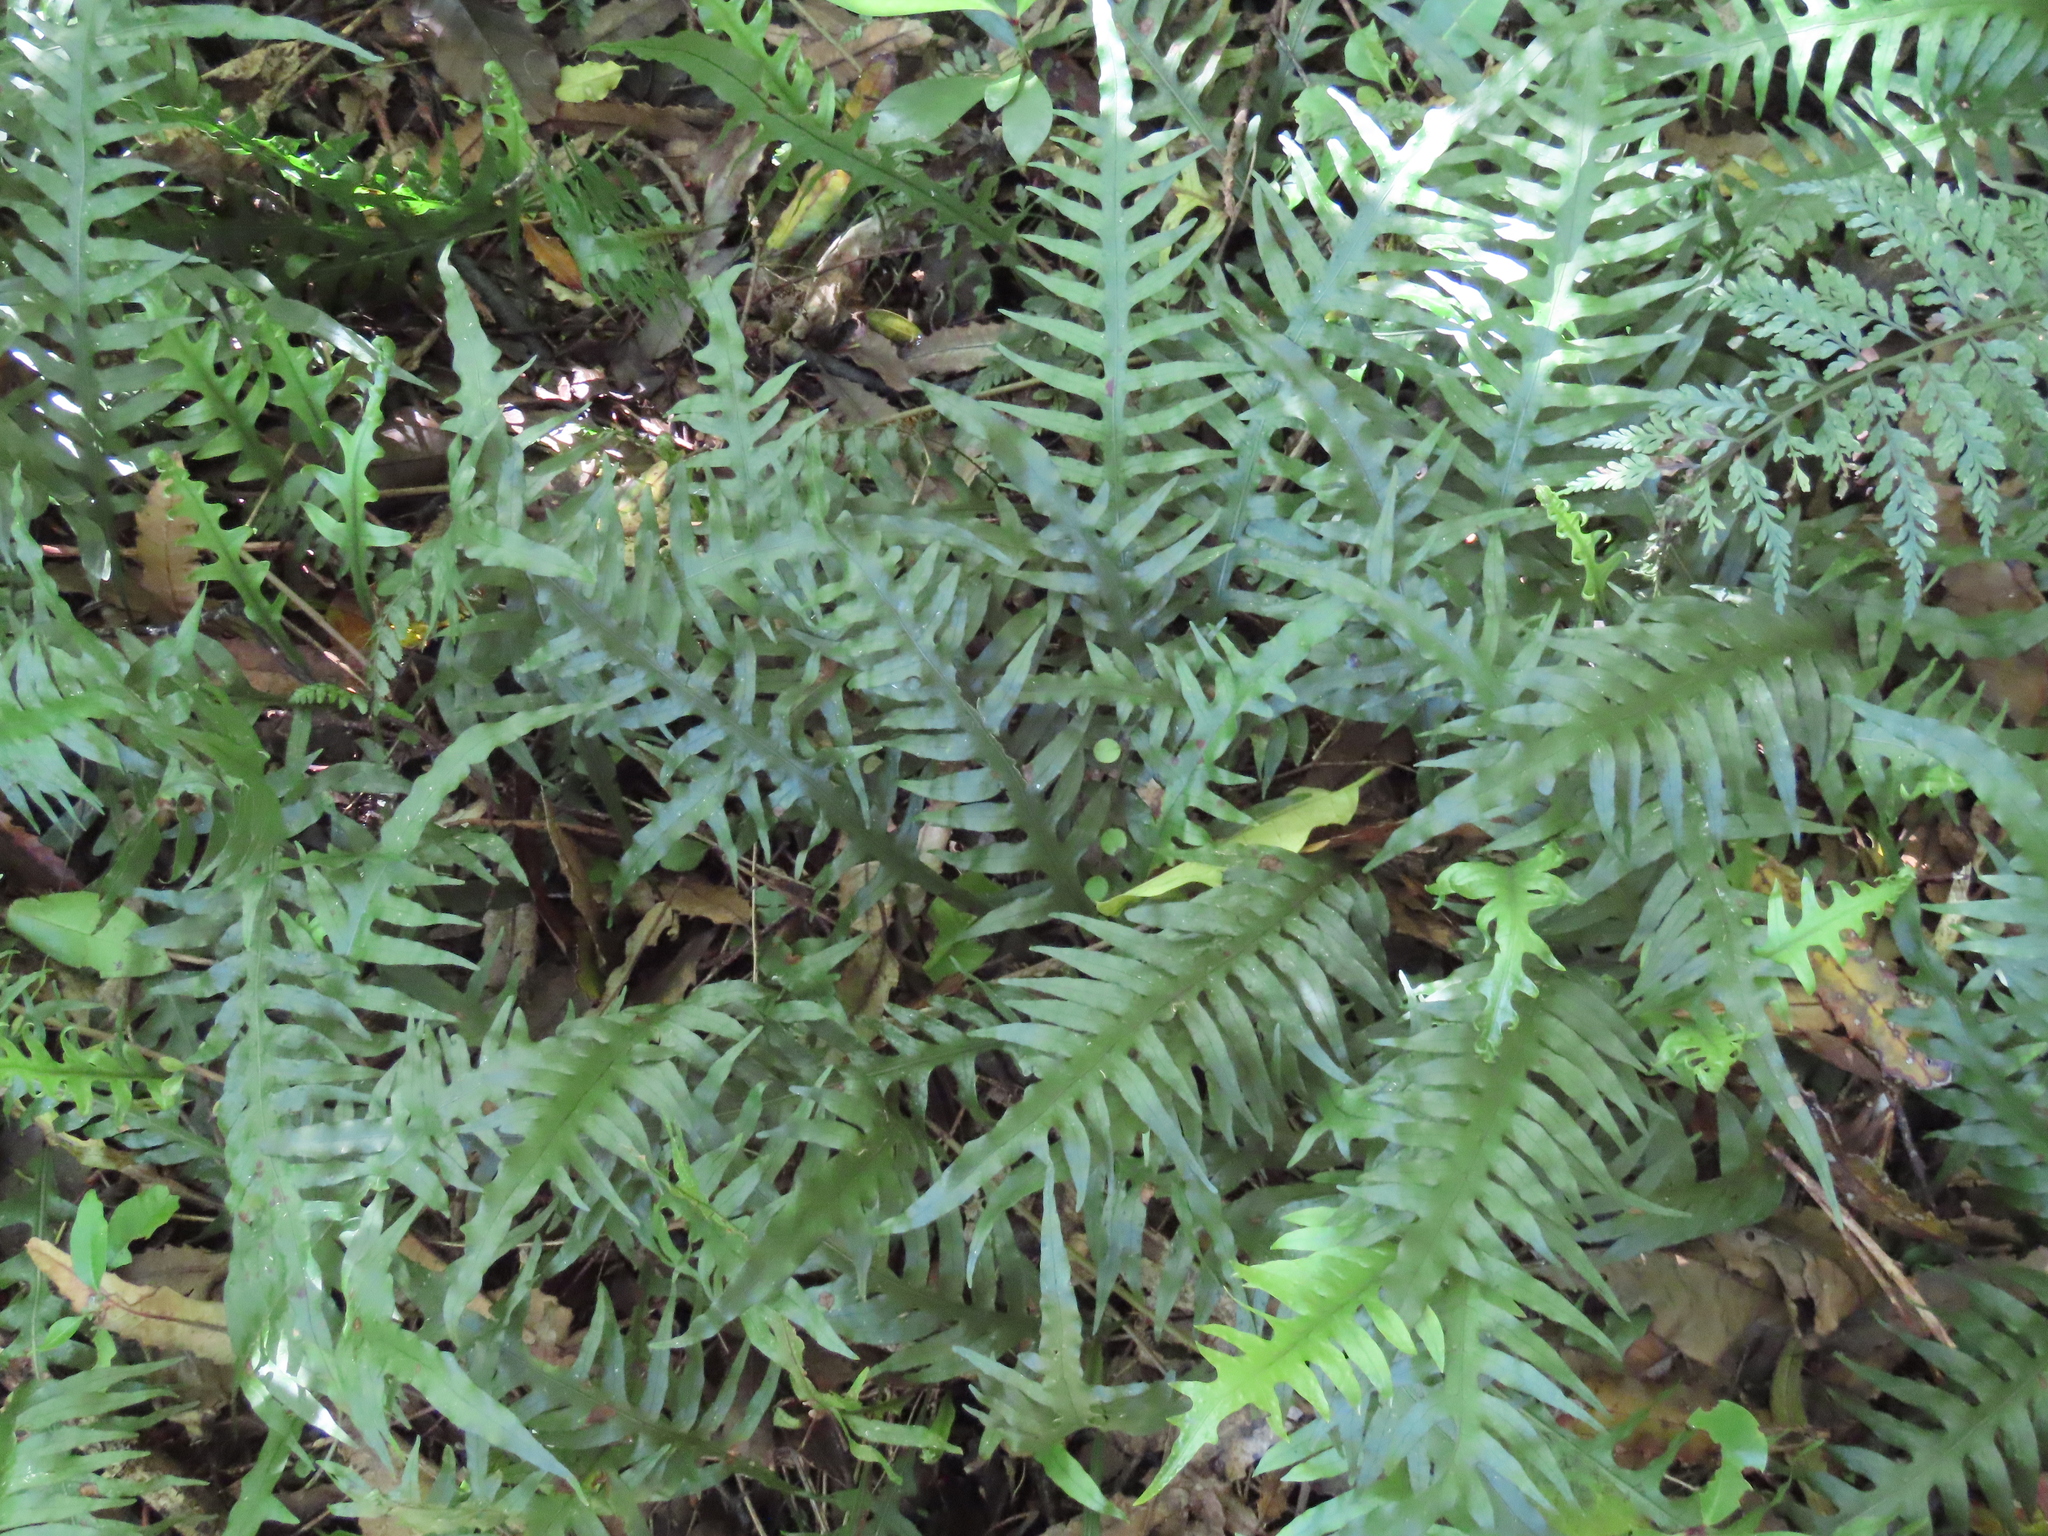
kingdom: Plantae
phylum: Tracheophyta
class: Polypodiopsida
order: Polypodiales
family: Polypodiaceae
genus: Lecanopteris
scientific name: Lecanopteris scandens
